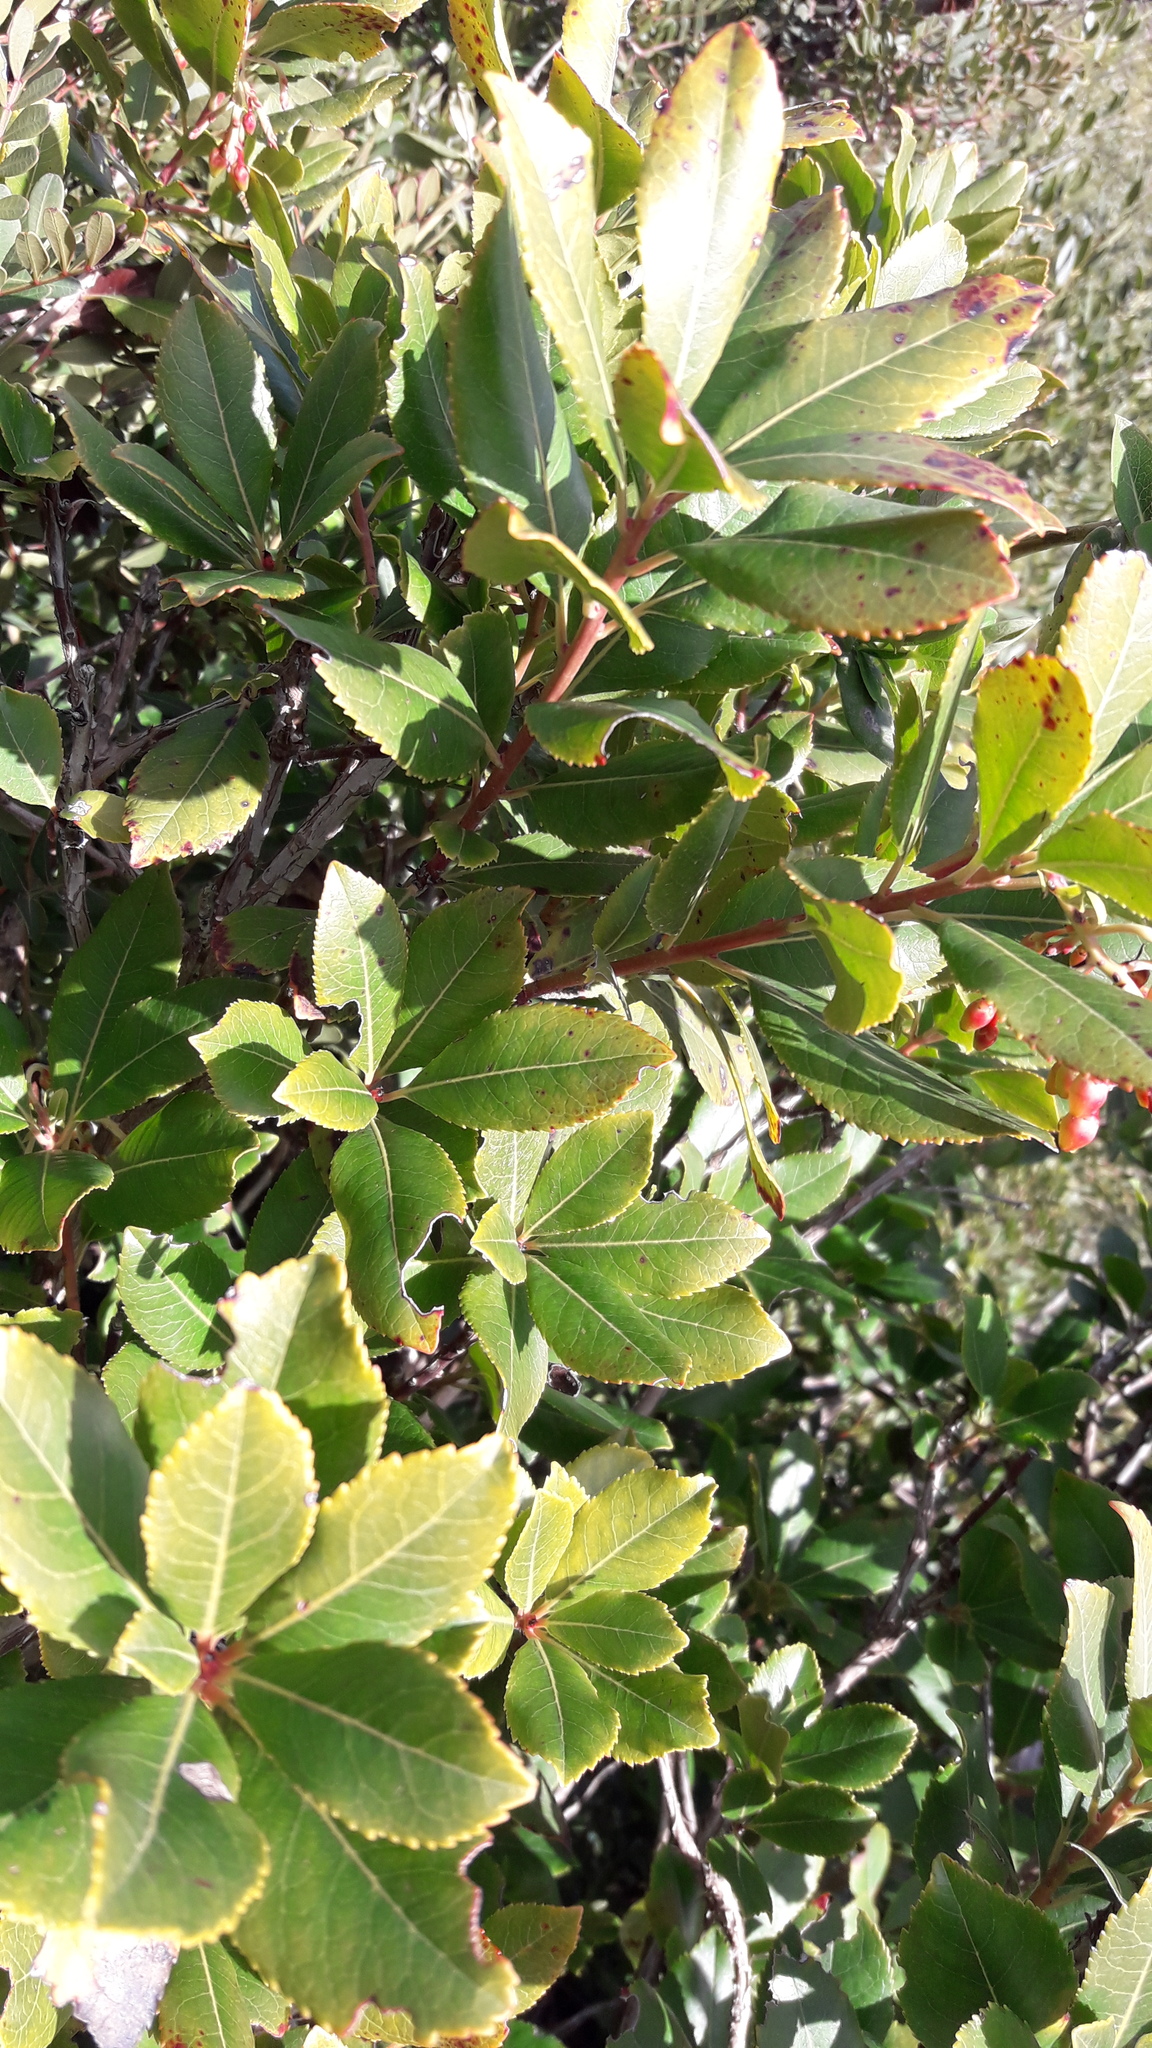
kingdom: Plantae
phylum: Tracheophyta
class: Magnoliopsida
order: Ericales
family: Ericaceae
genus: Arbutus
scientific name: Arbutus unedo
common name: Strawberry-tree
